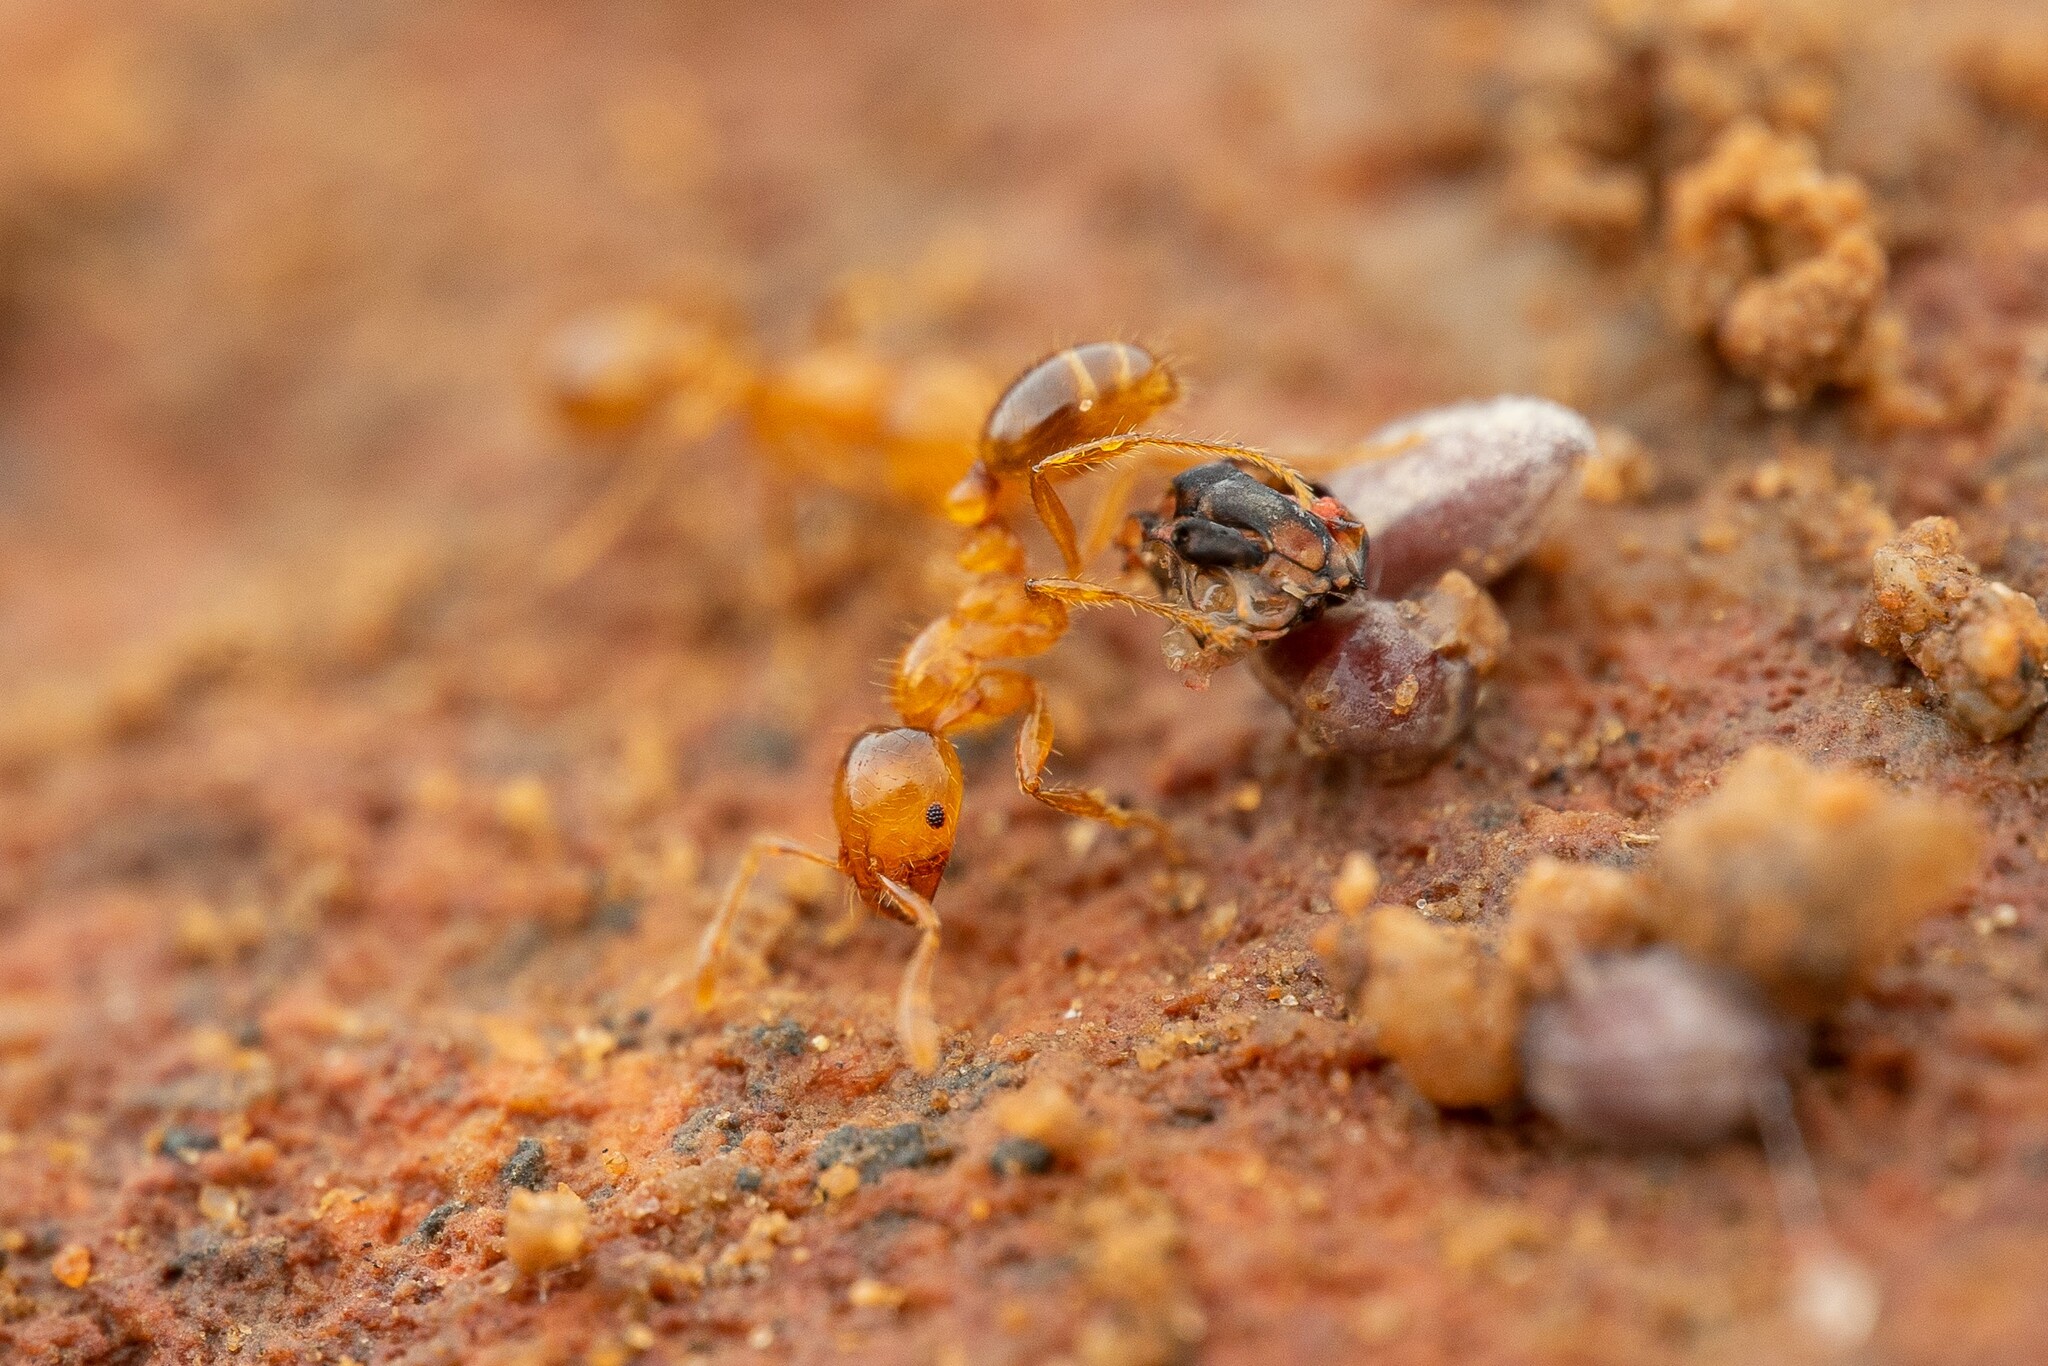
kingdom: Animalia
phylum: Arthropoda
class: Insecta
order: Hymenoptera
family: Formicidae
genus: Solenopsis
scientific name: Solenopsis aurea
